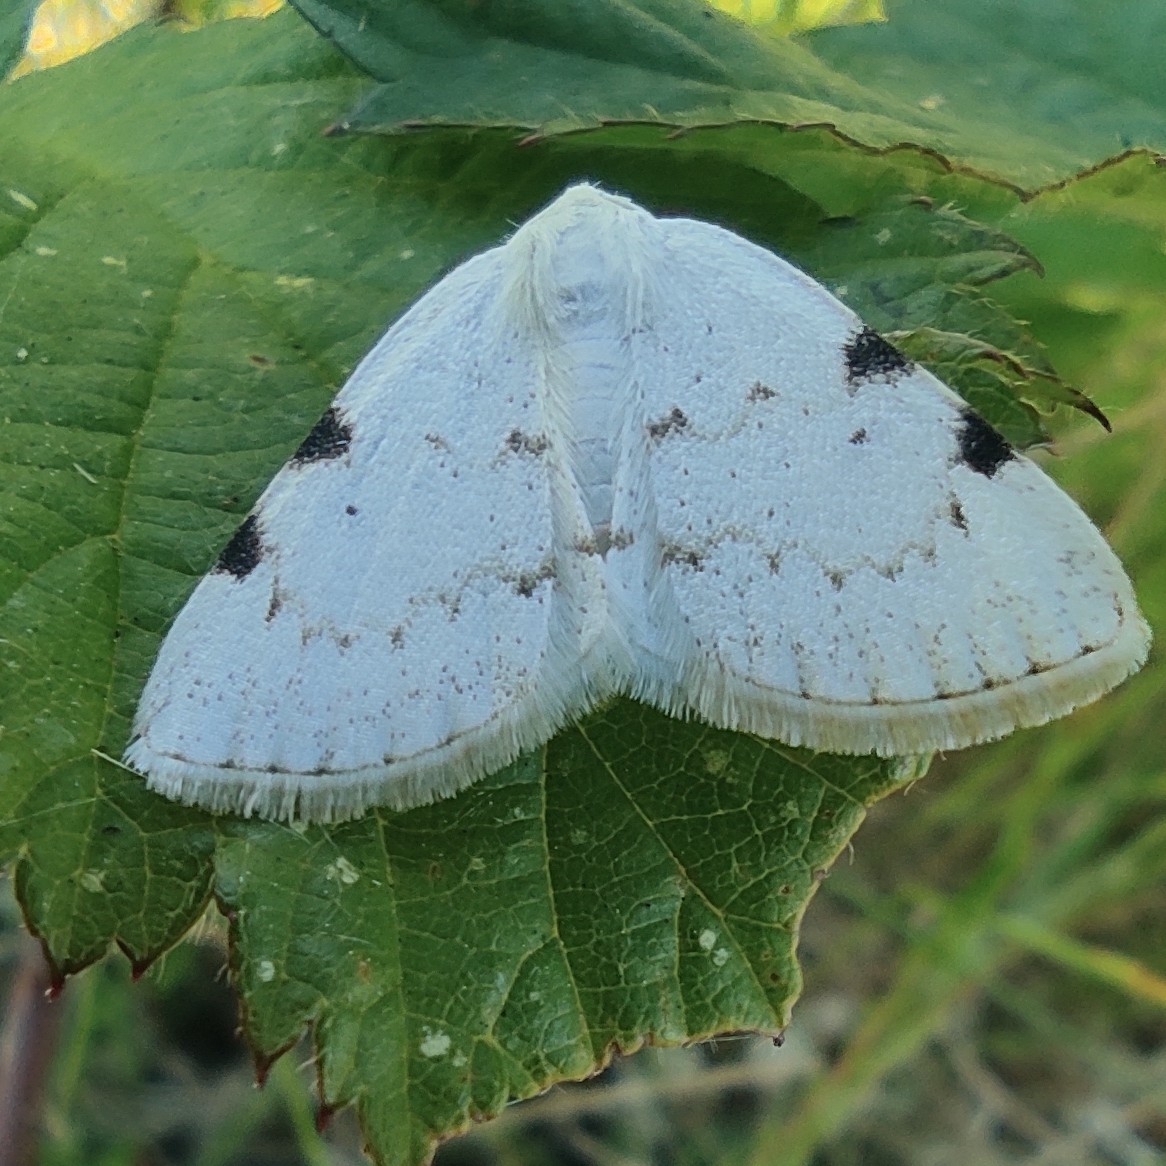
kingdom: Animalia
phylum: Arthropoda
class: Insecta
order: Lepidoptera
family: Geometridae
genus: Lomographa
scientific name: Lomographa bimaculata
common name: White-pinion spotted
